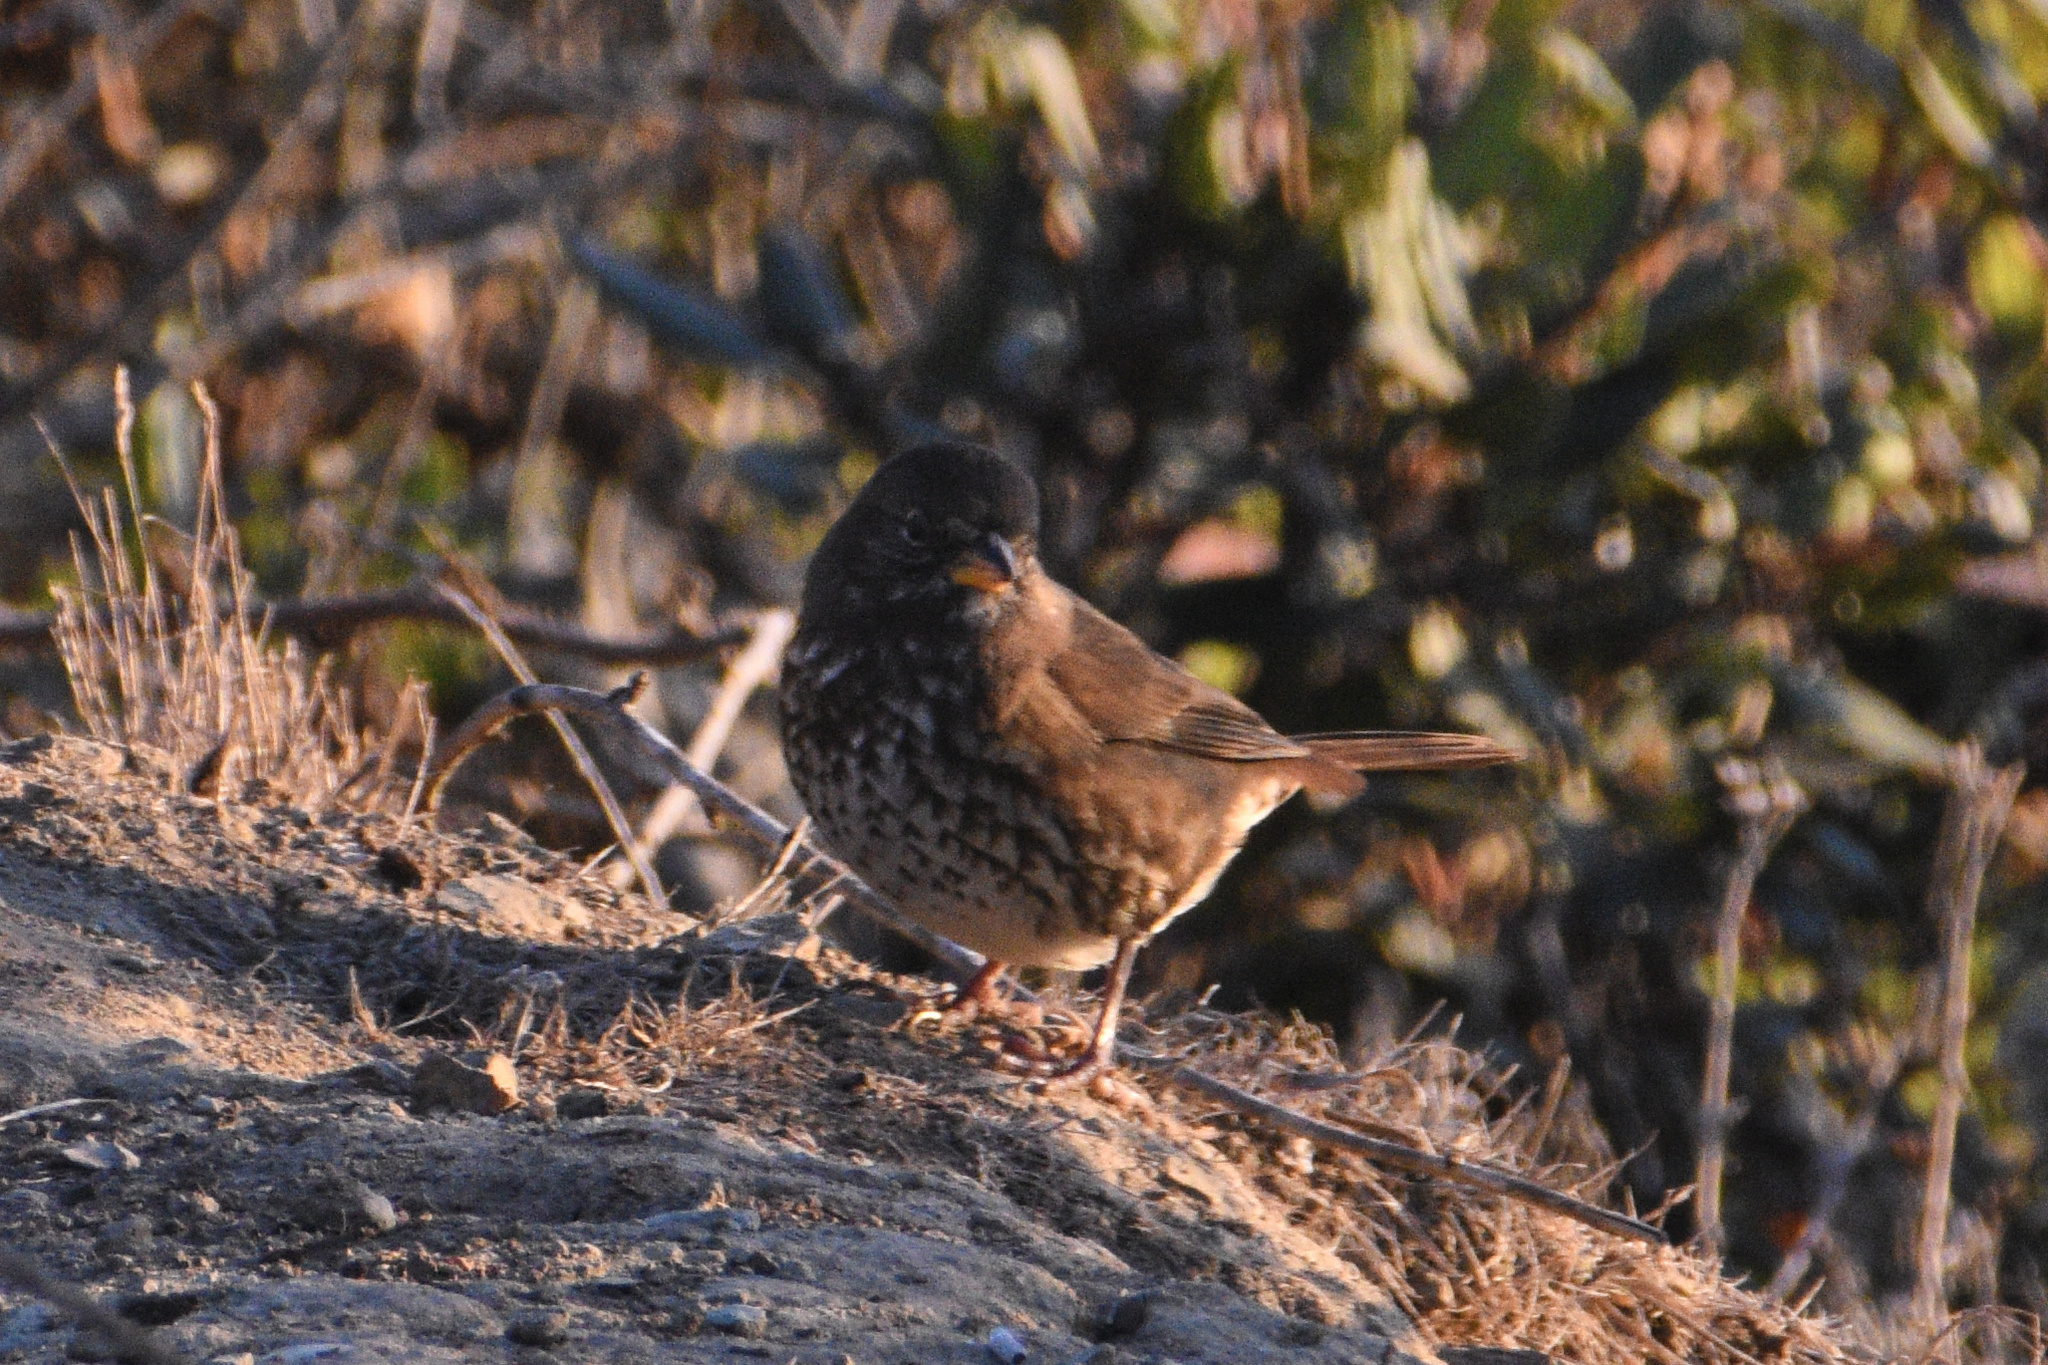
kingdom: Animalia
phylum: Chordata
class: Aves
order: Passeriformes
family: Passerellidae
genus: Passerella
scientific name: Passerella iliaca
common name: Fox sparrow
